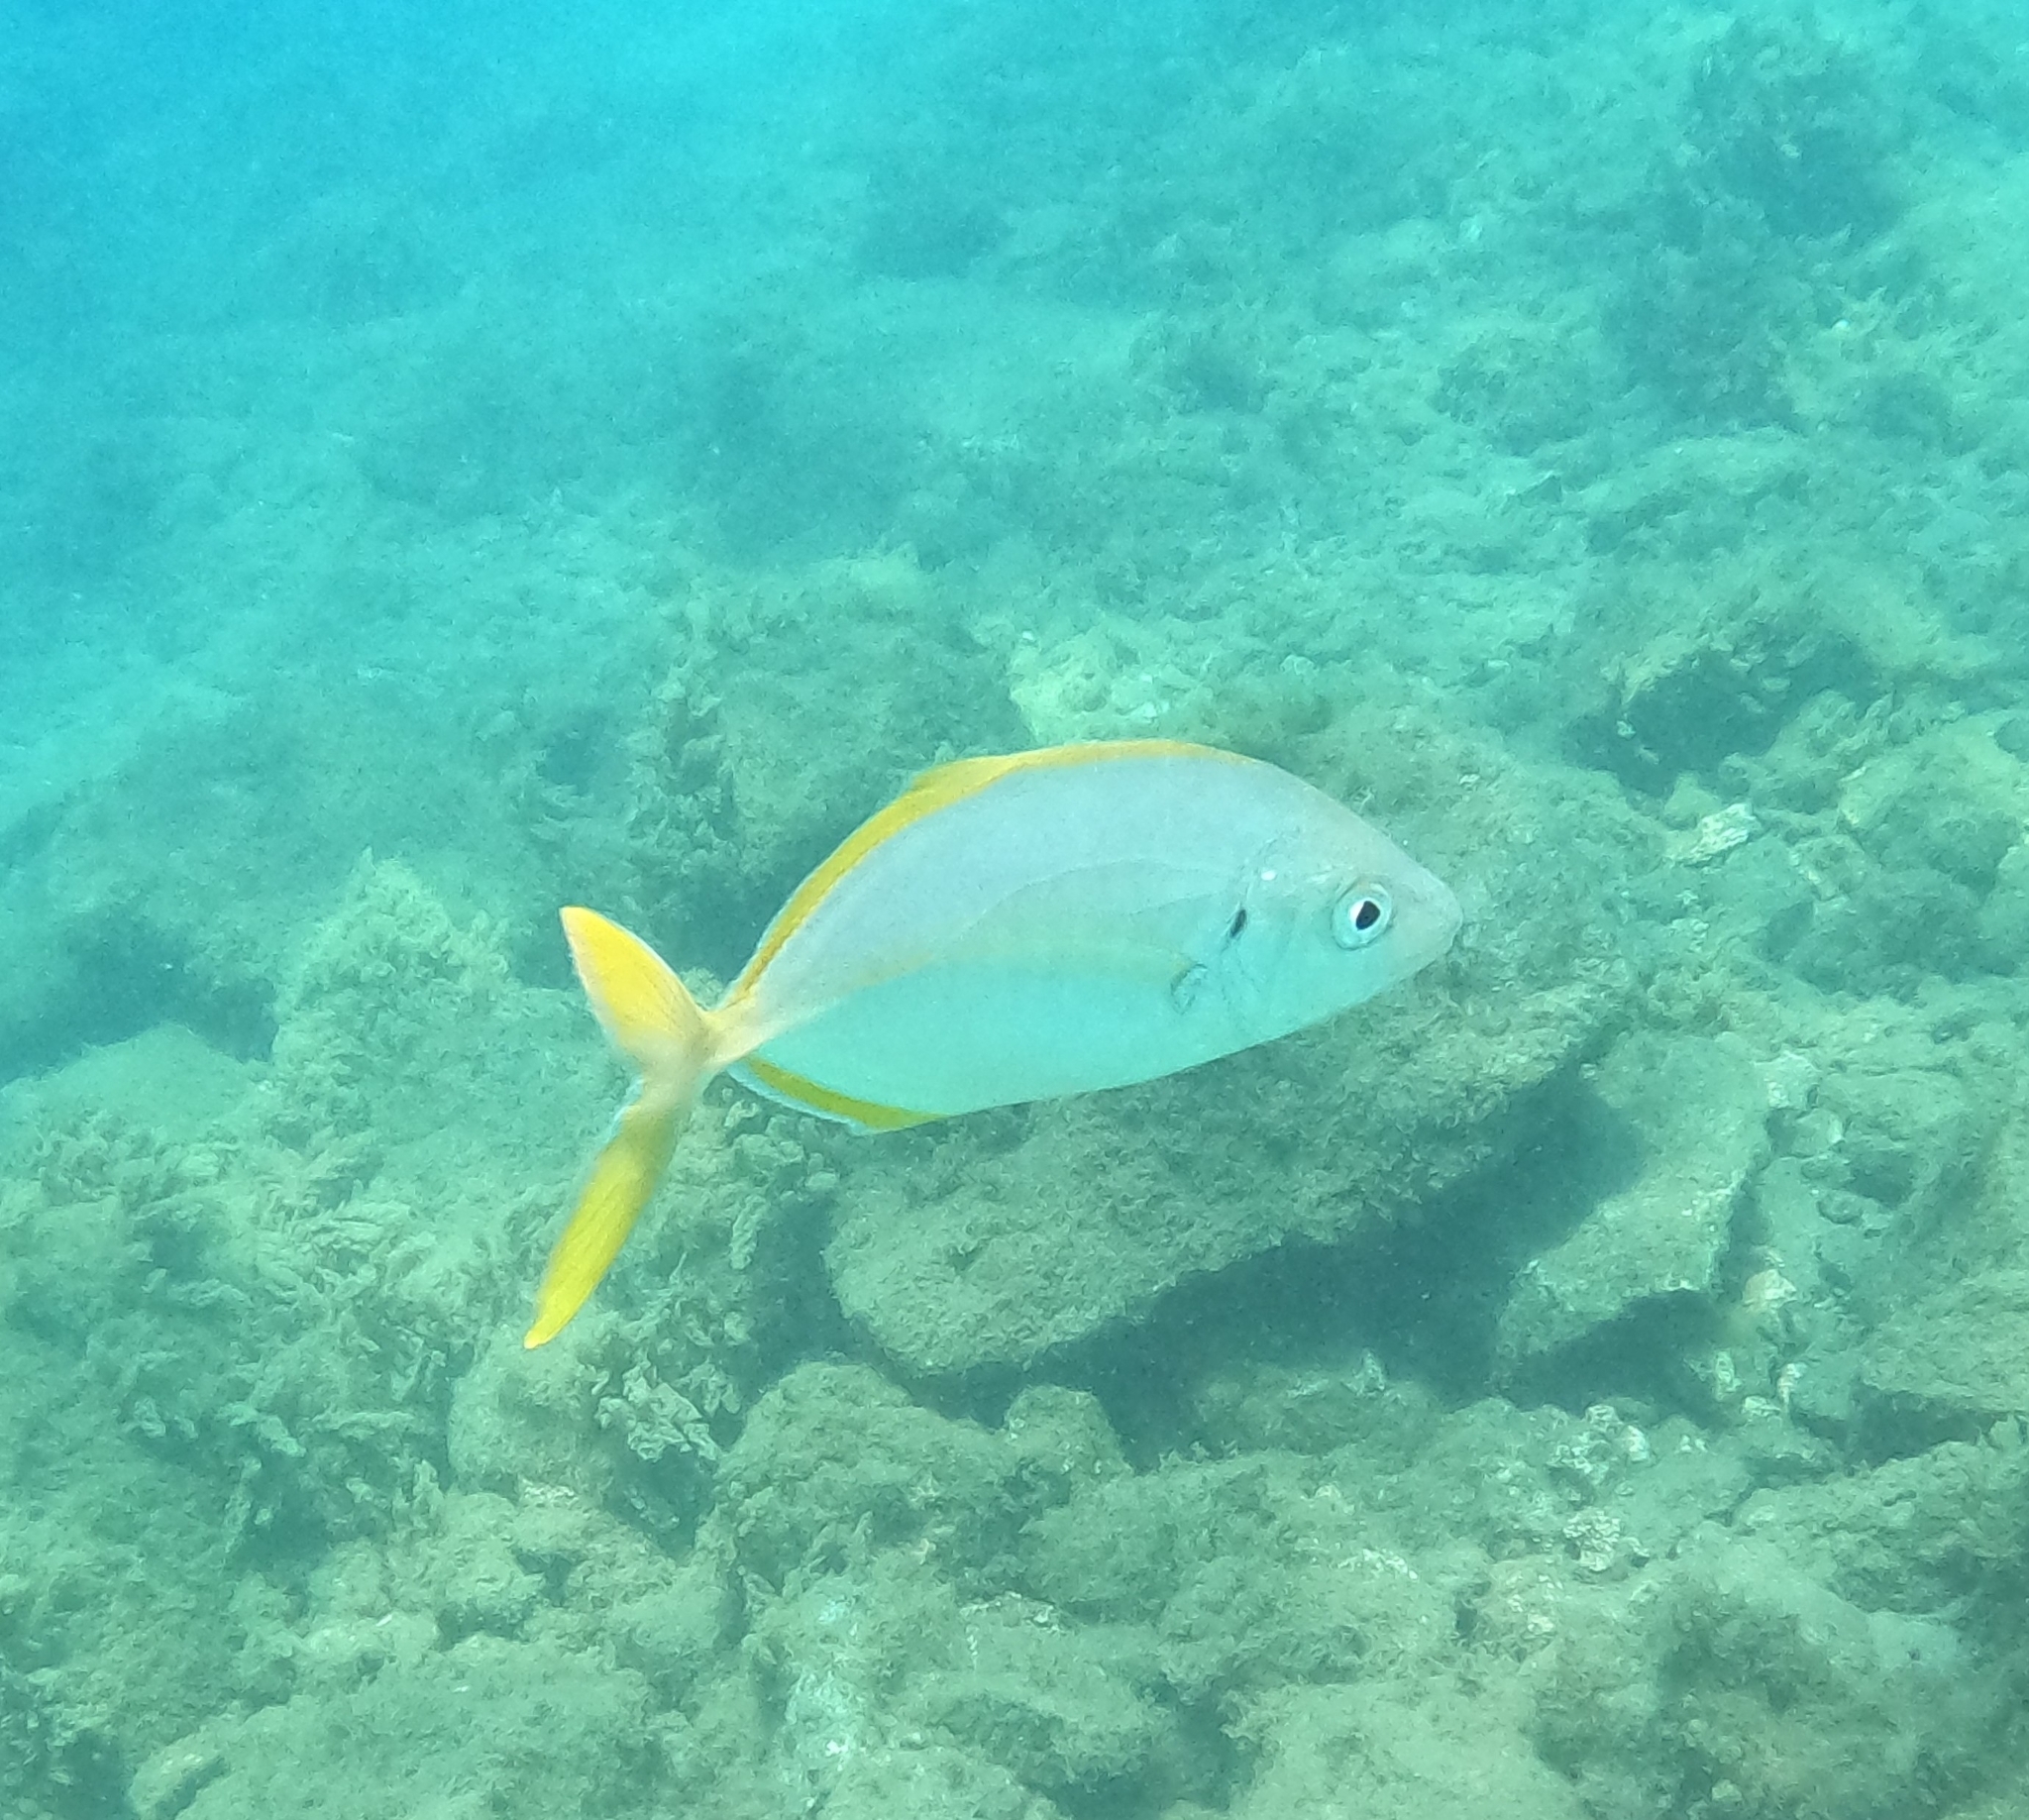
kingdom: Animalia
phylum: Chordata
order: Perciformes
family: Carangidae
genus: Pseudocaranx
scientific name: Pseudocaranx dentex
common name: White trevally
